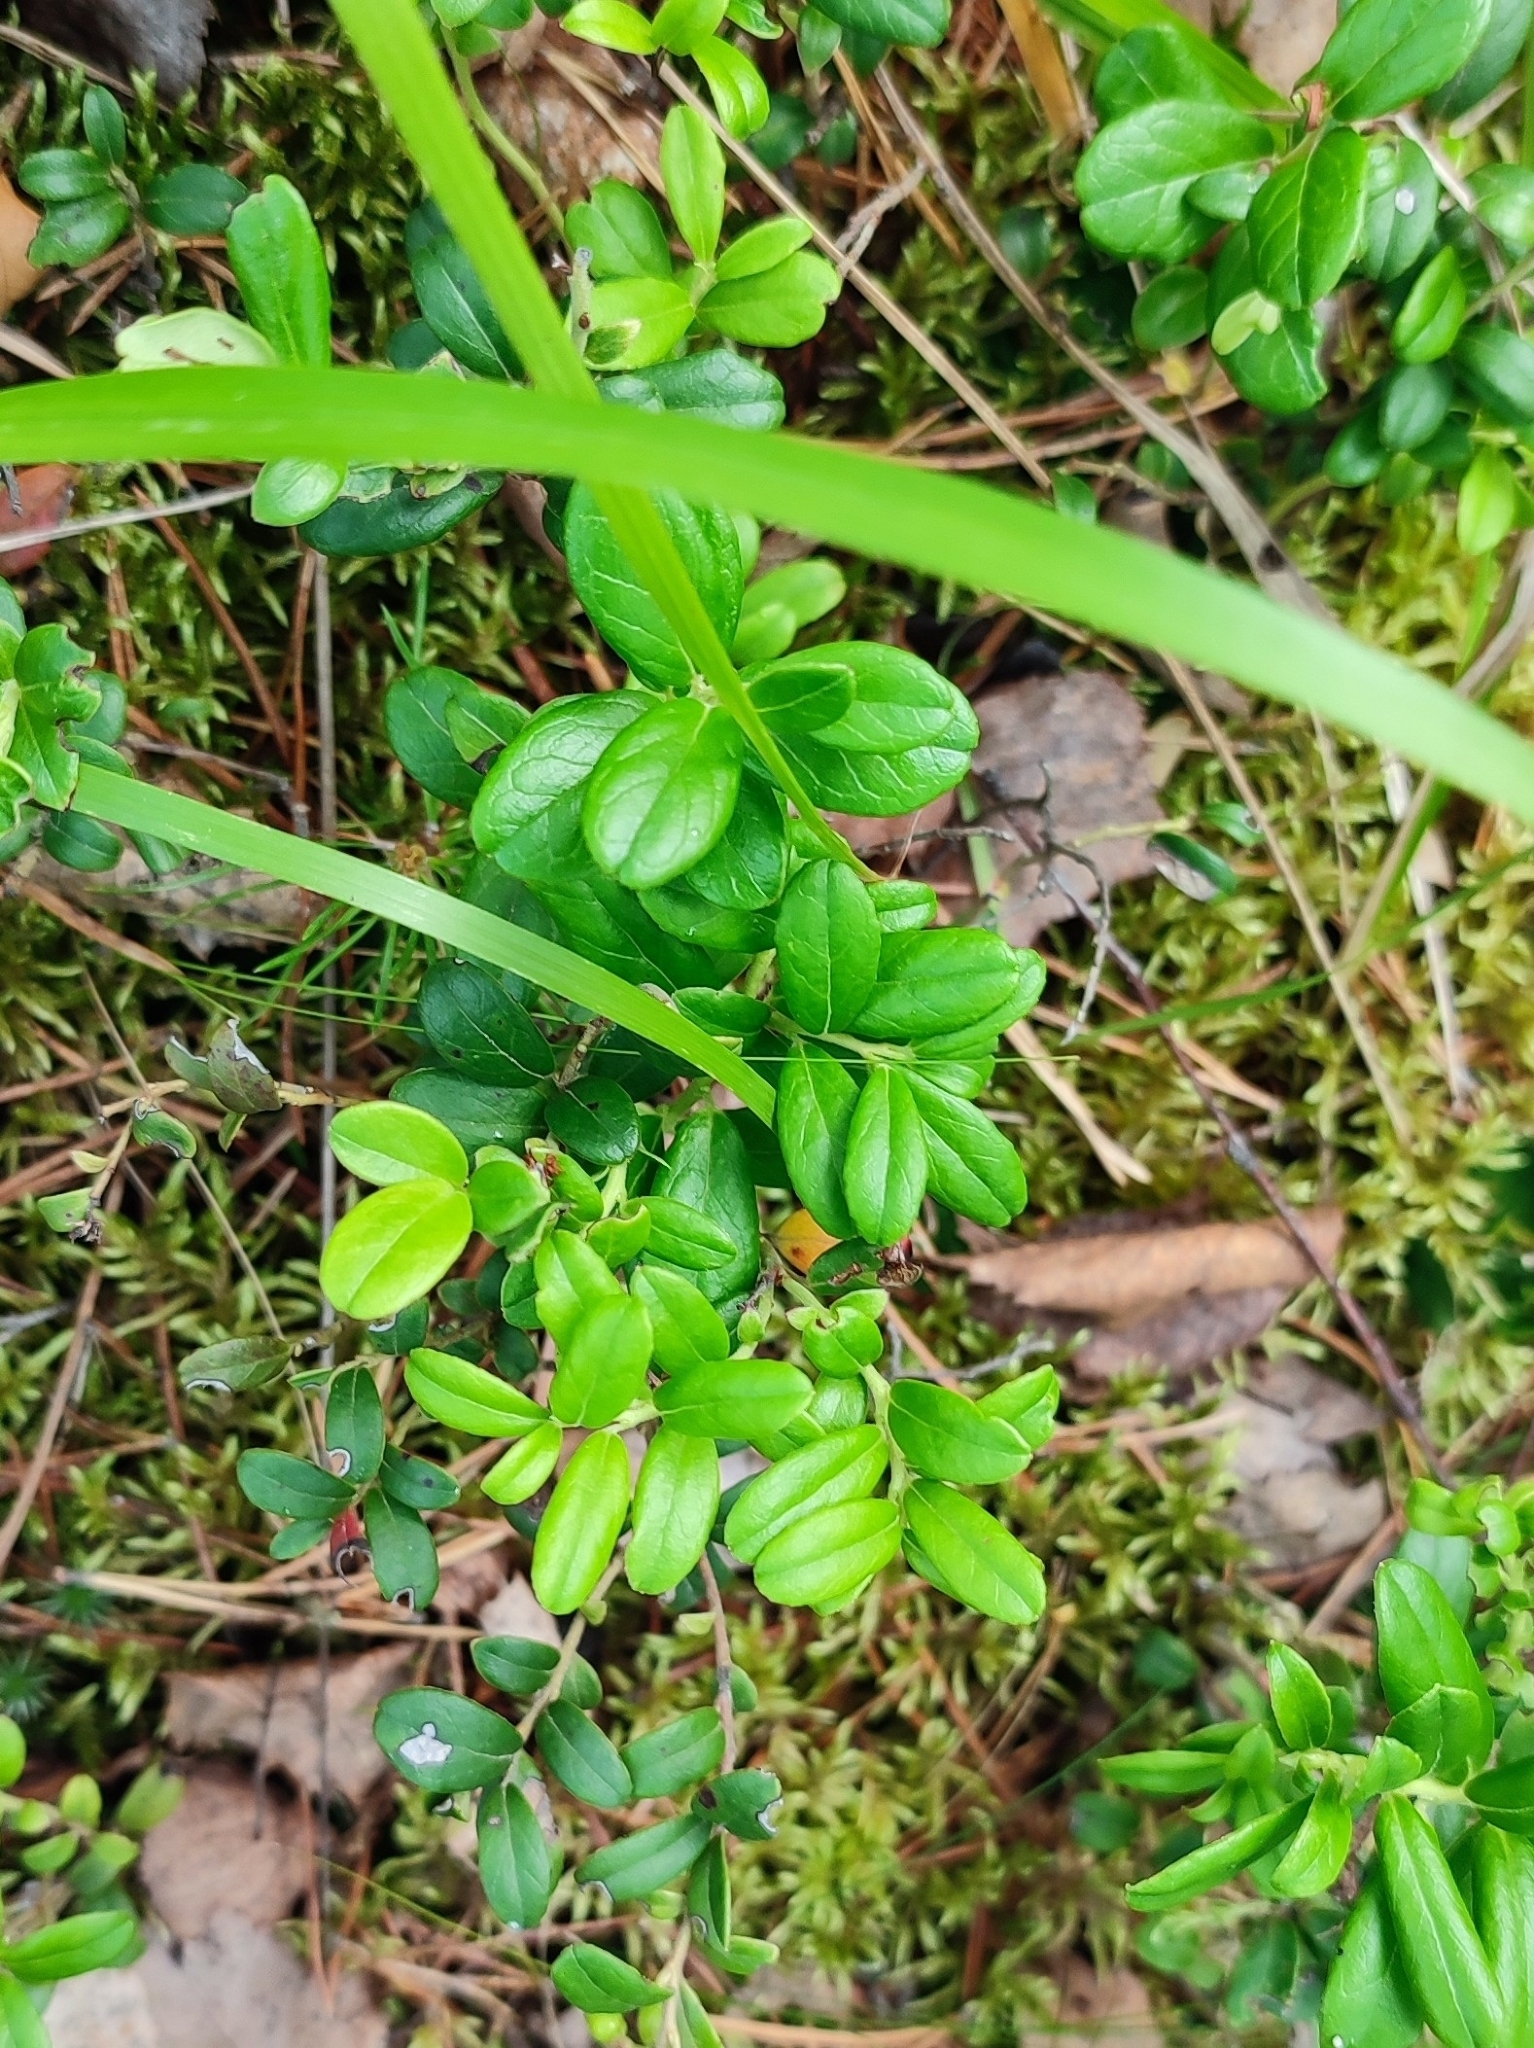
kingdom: Plantae
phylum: Tracheophyta
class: Magnoliopsida
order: Ericales
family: Ericaceae
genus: Vaccinium
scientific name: Vaccinium vitis-idaea
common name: Cowberry
